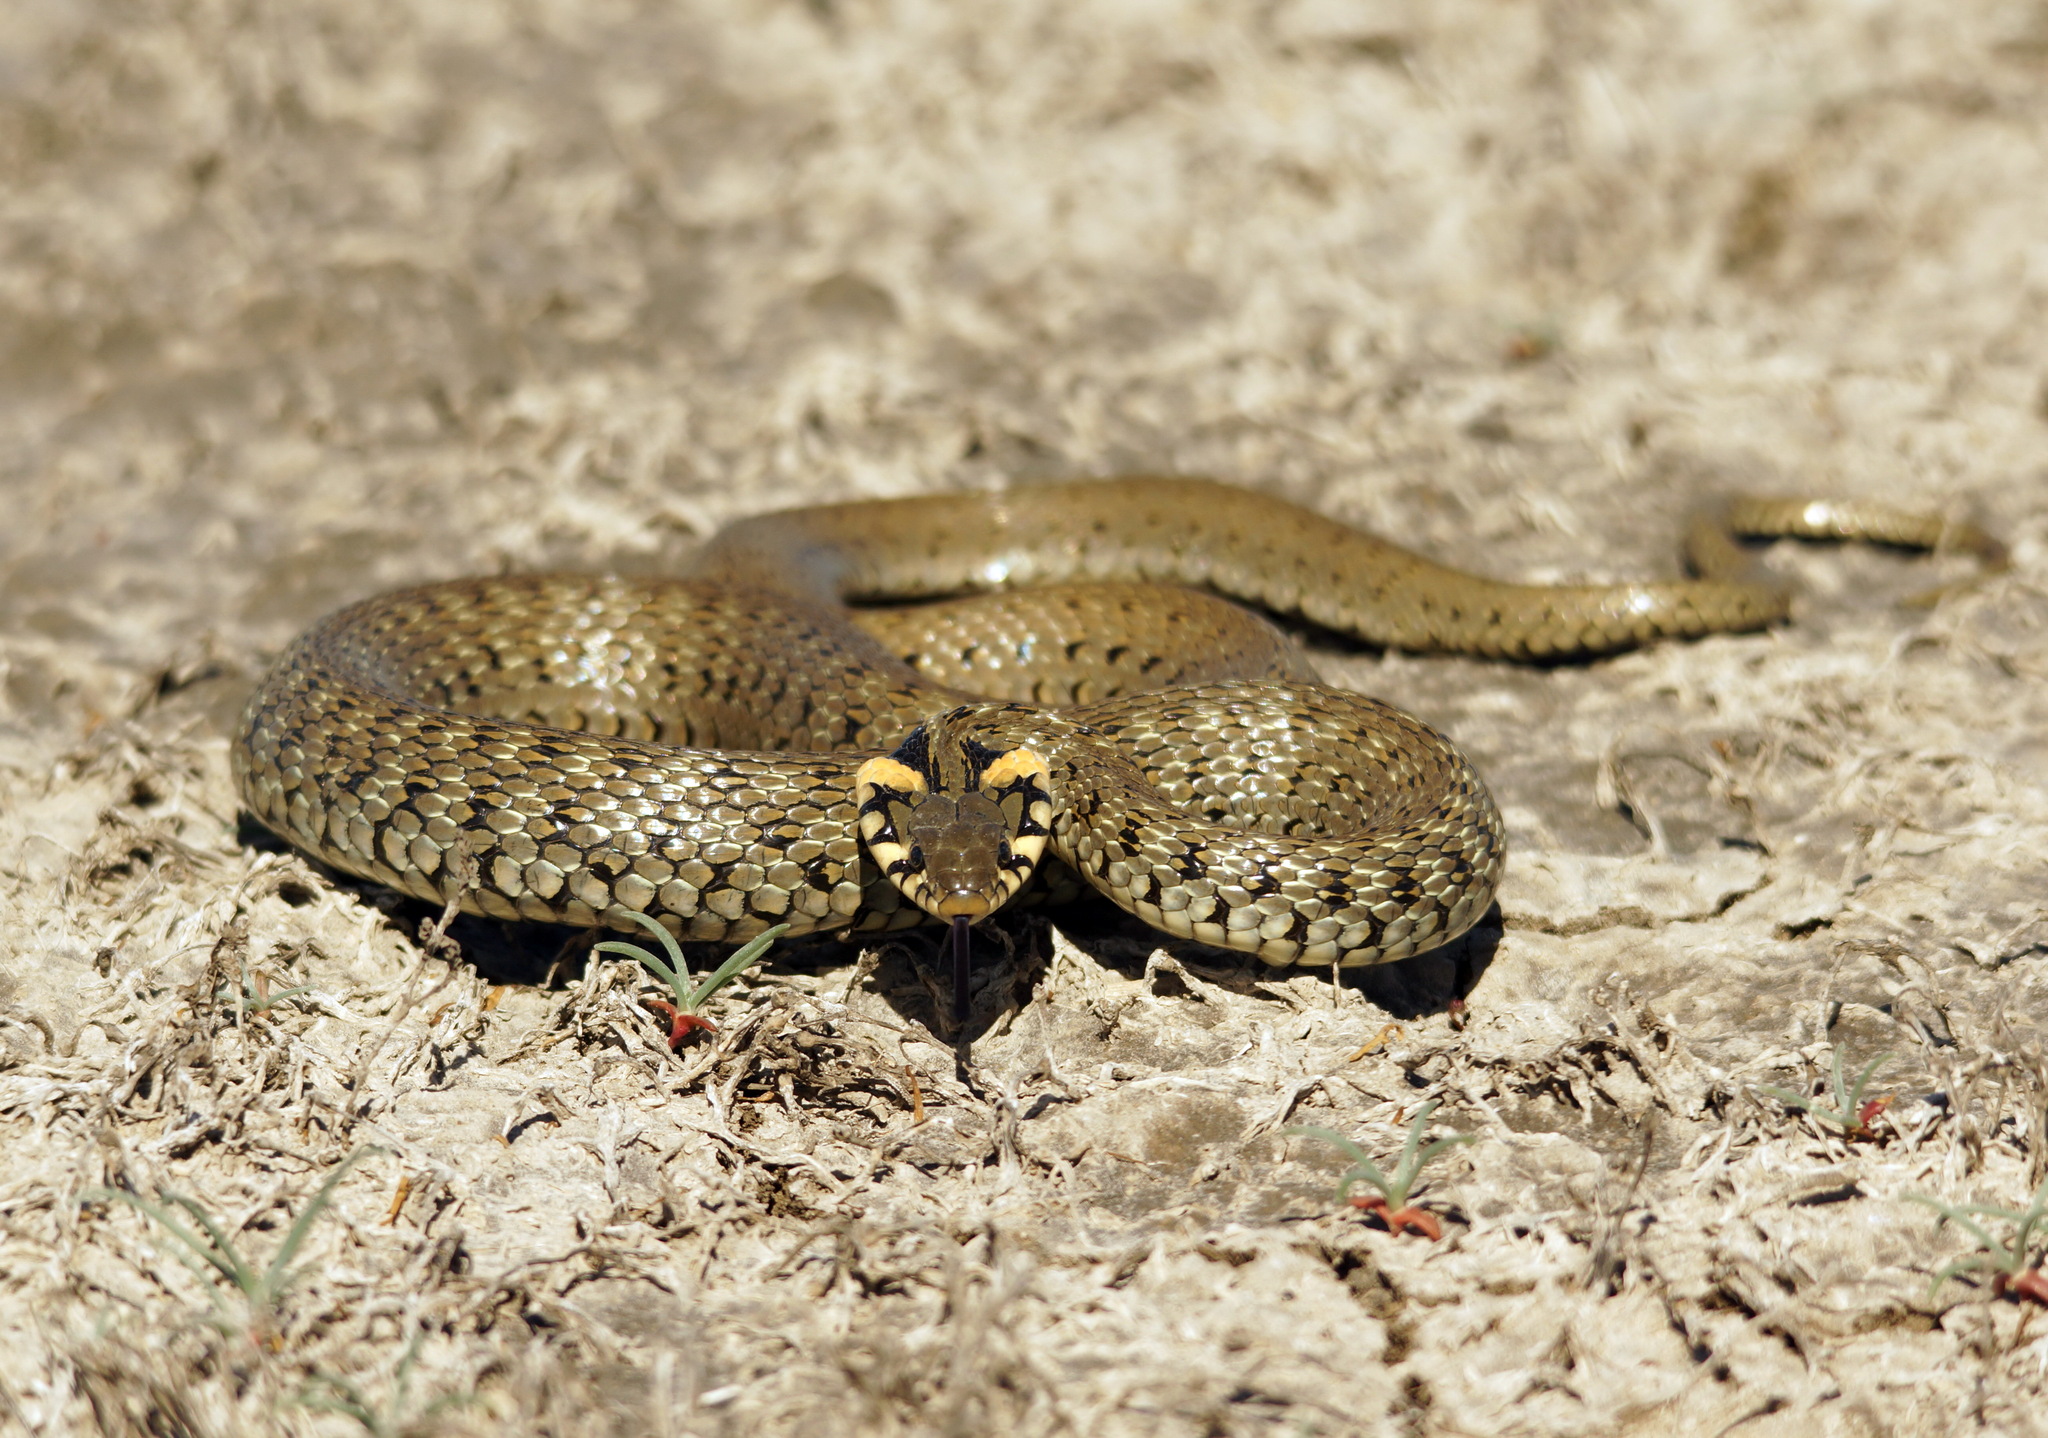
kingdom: Animalia
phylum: Chordata
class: Squamata
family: Colubridae
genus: Natrix
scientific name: Natrix natrix
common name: Grass snake
